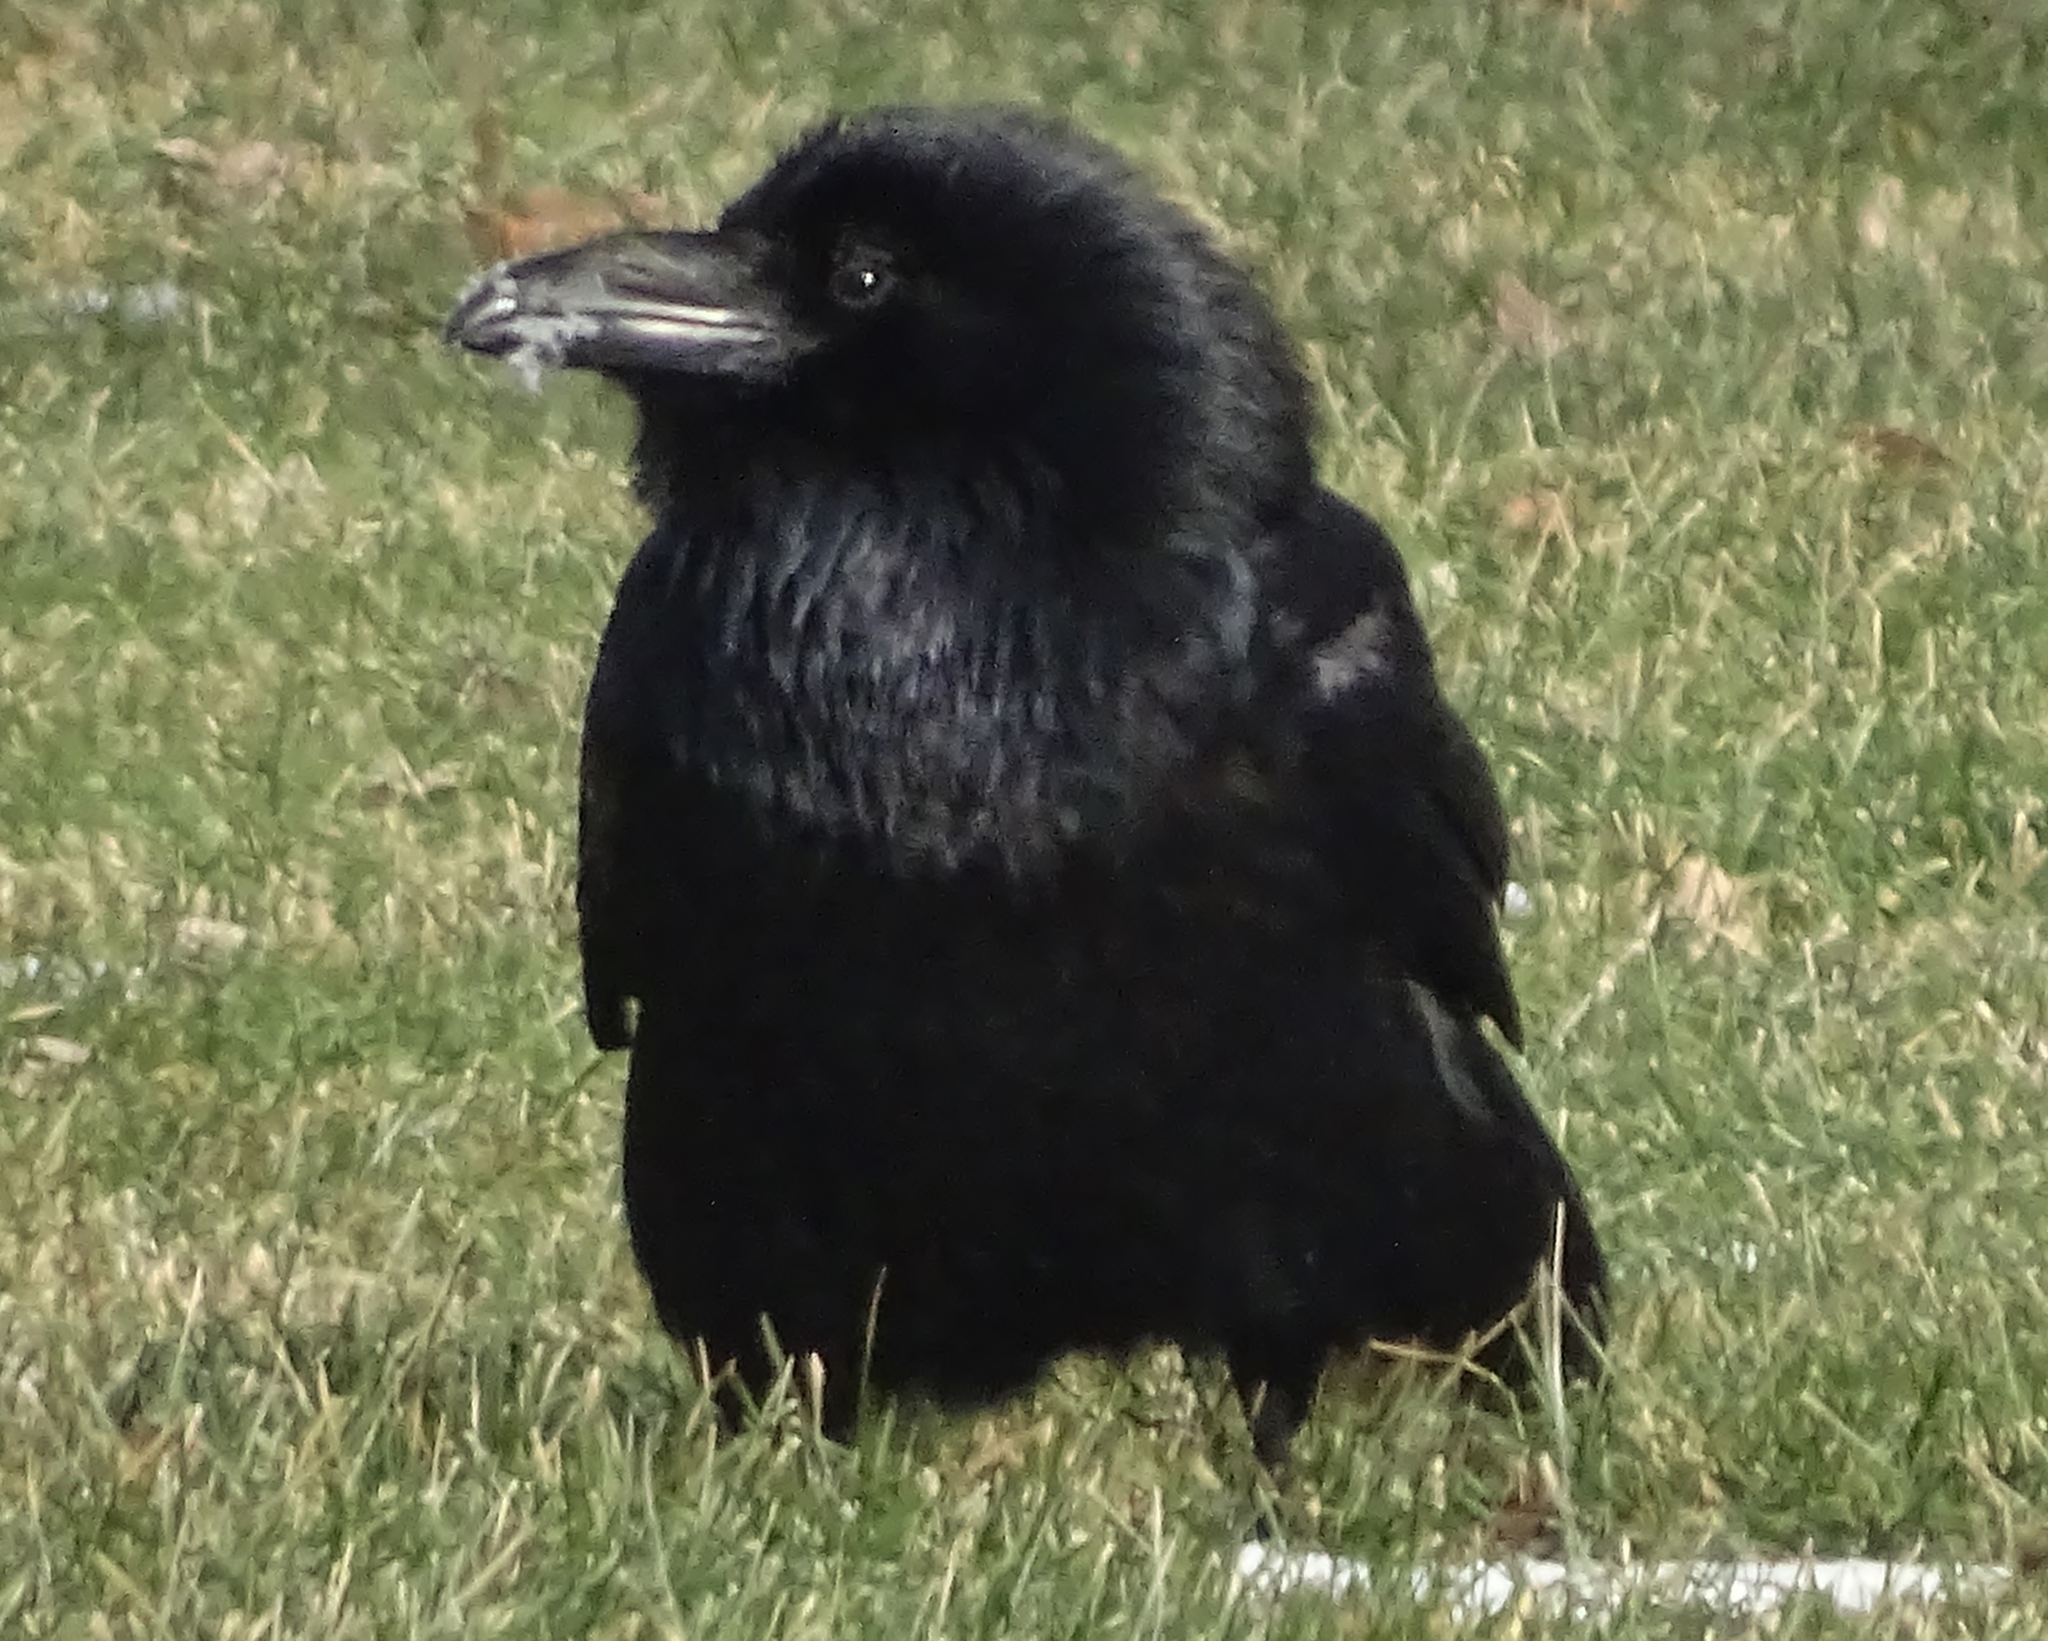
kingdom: Animalia
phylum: Chordata
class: Aves
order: Passeriformes
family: Corvidae
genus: Corvus
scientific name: Corvus corax
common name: Common raven
